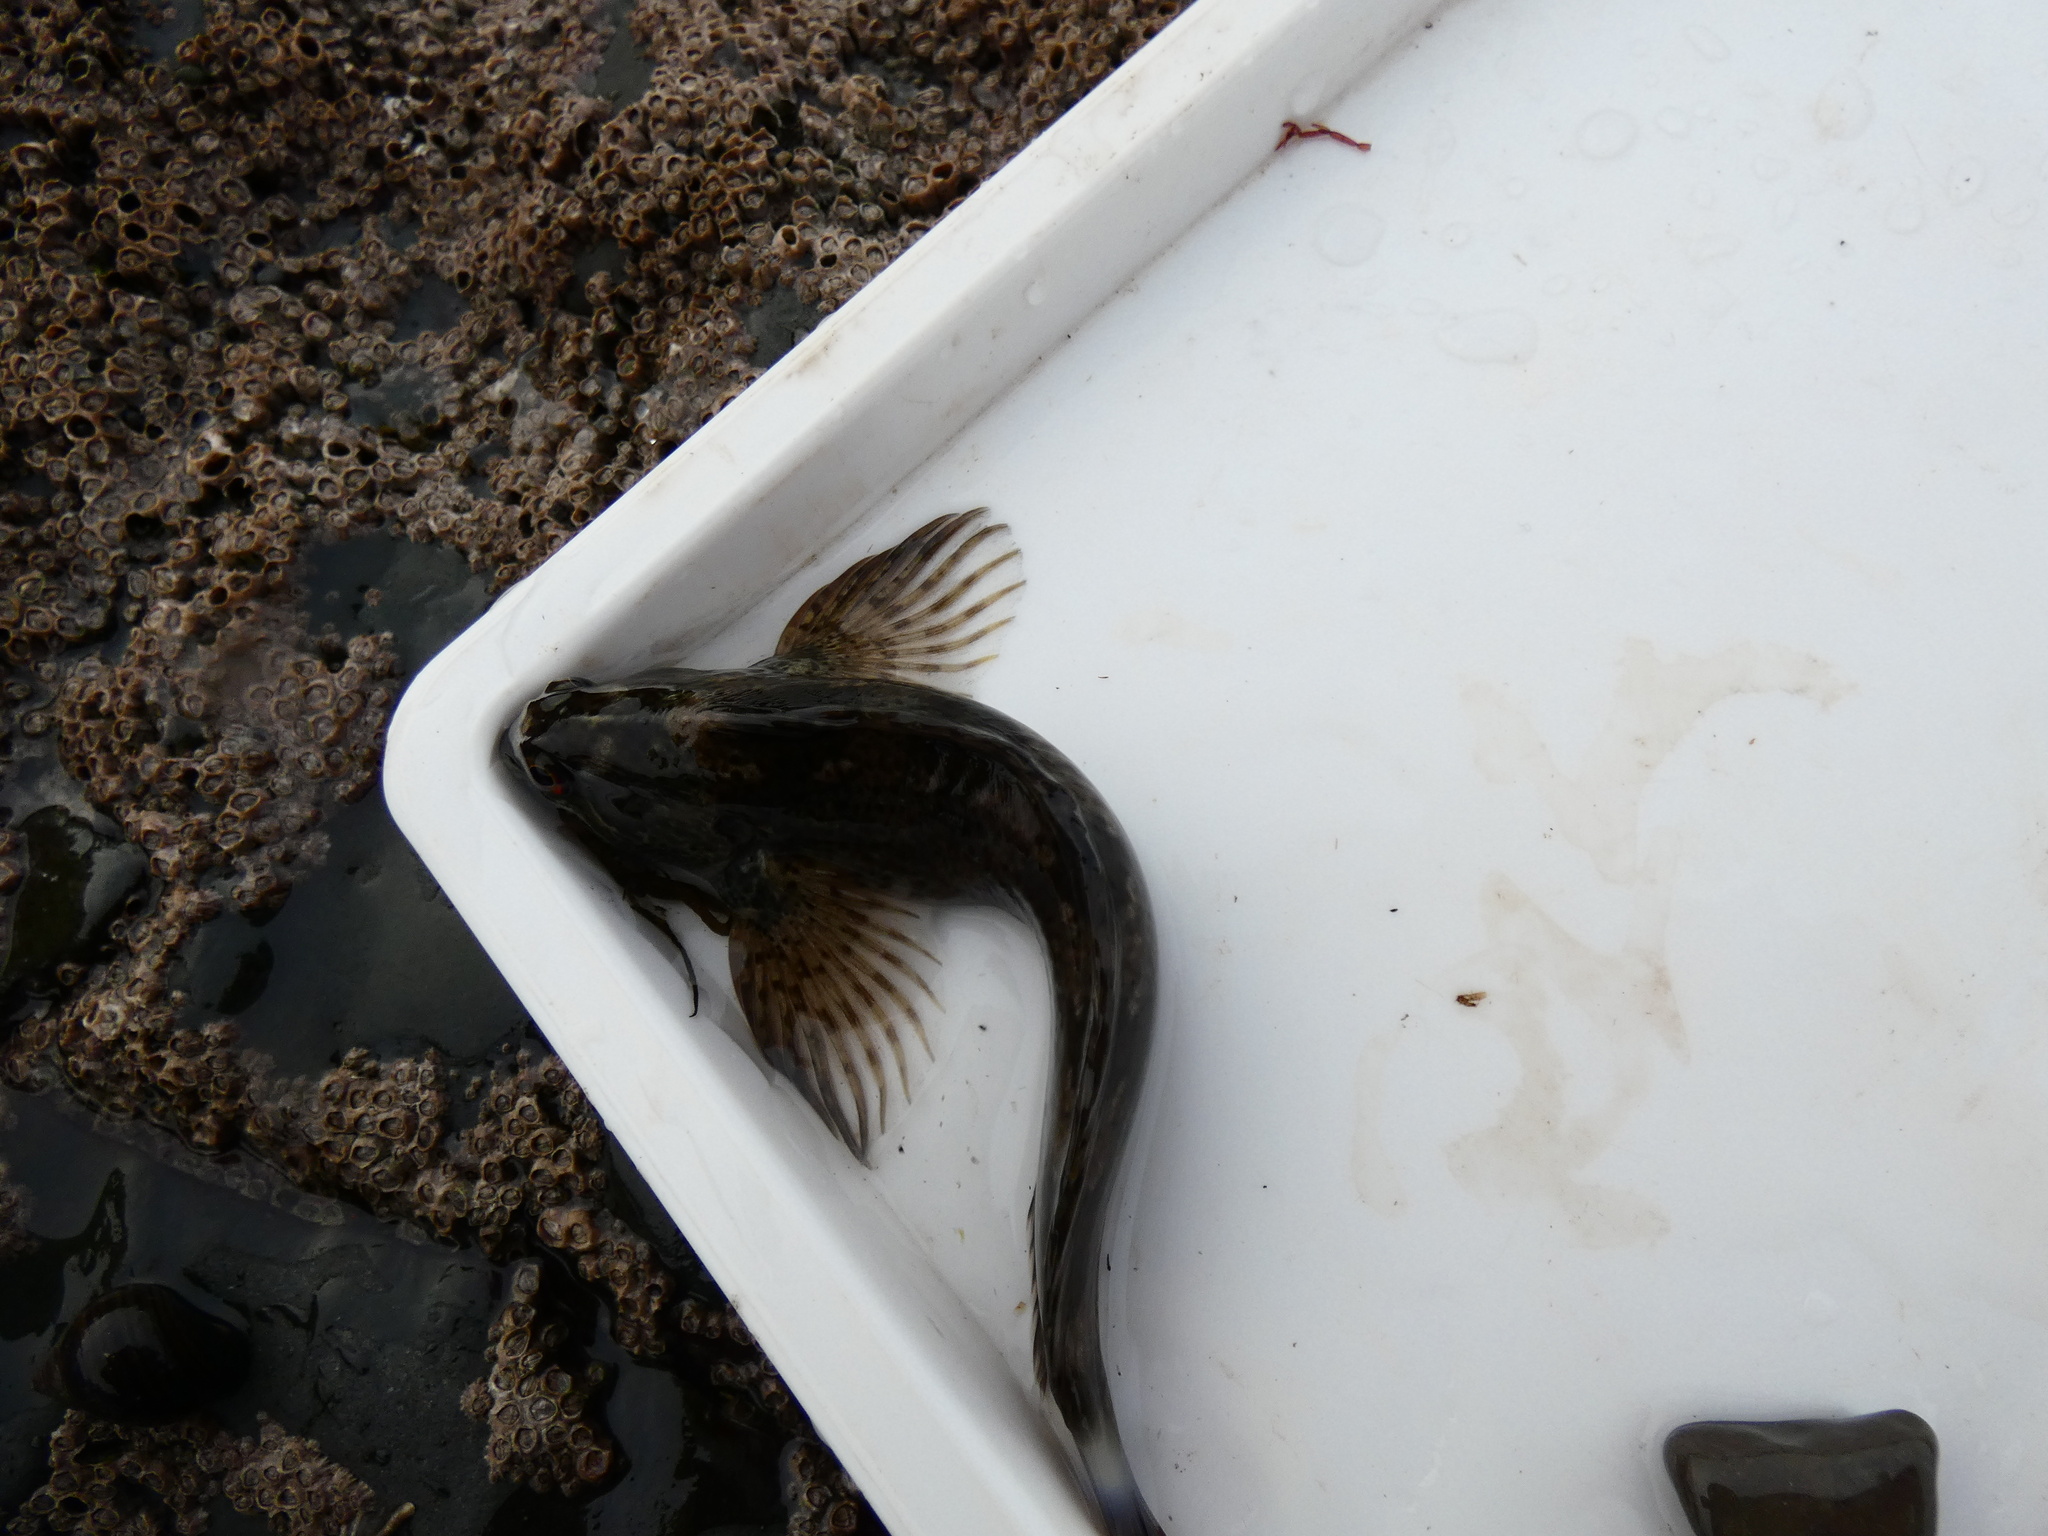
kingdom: Animalia
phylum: Chordata
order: Perciformes
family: Blenniidae
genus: Lipophrys
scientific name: Lipophrys pholis
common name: Shanny
